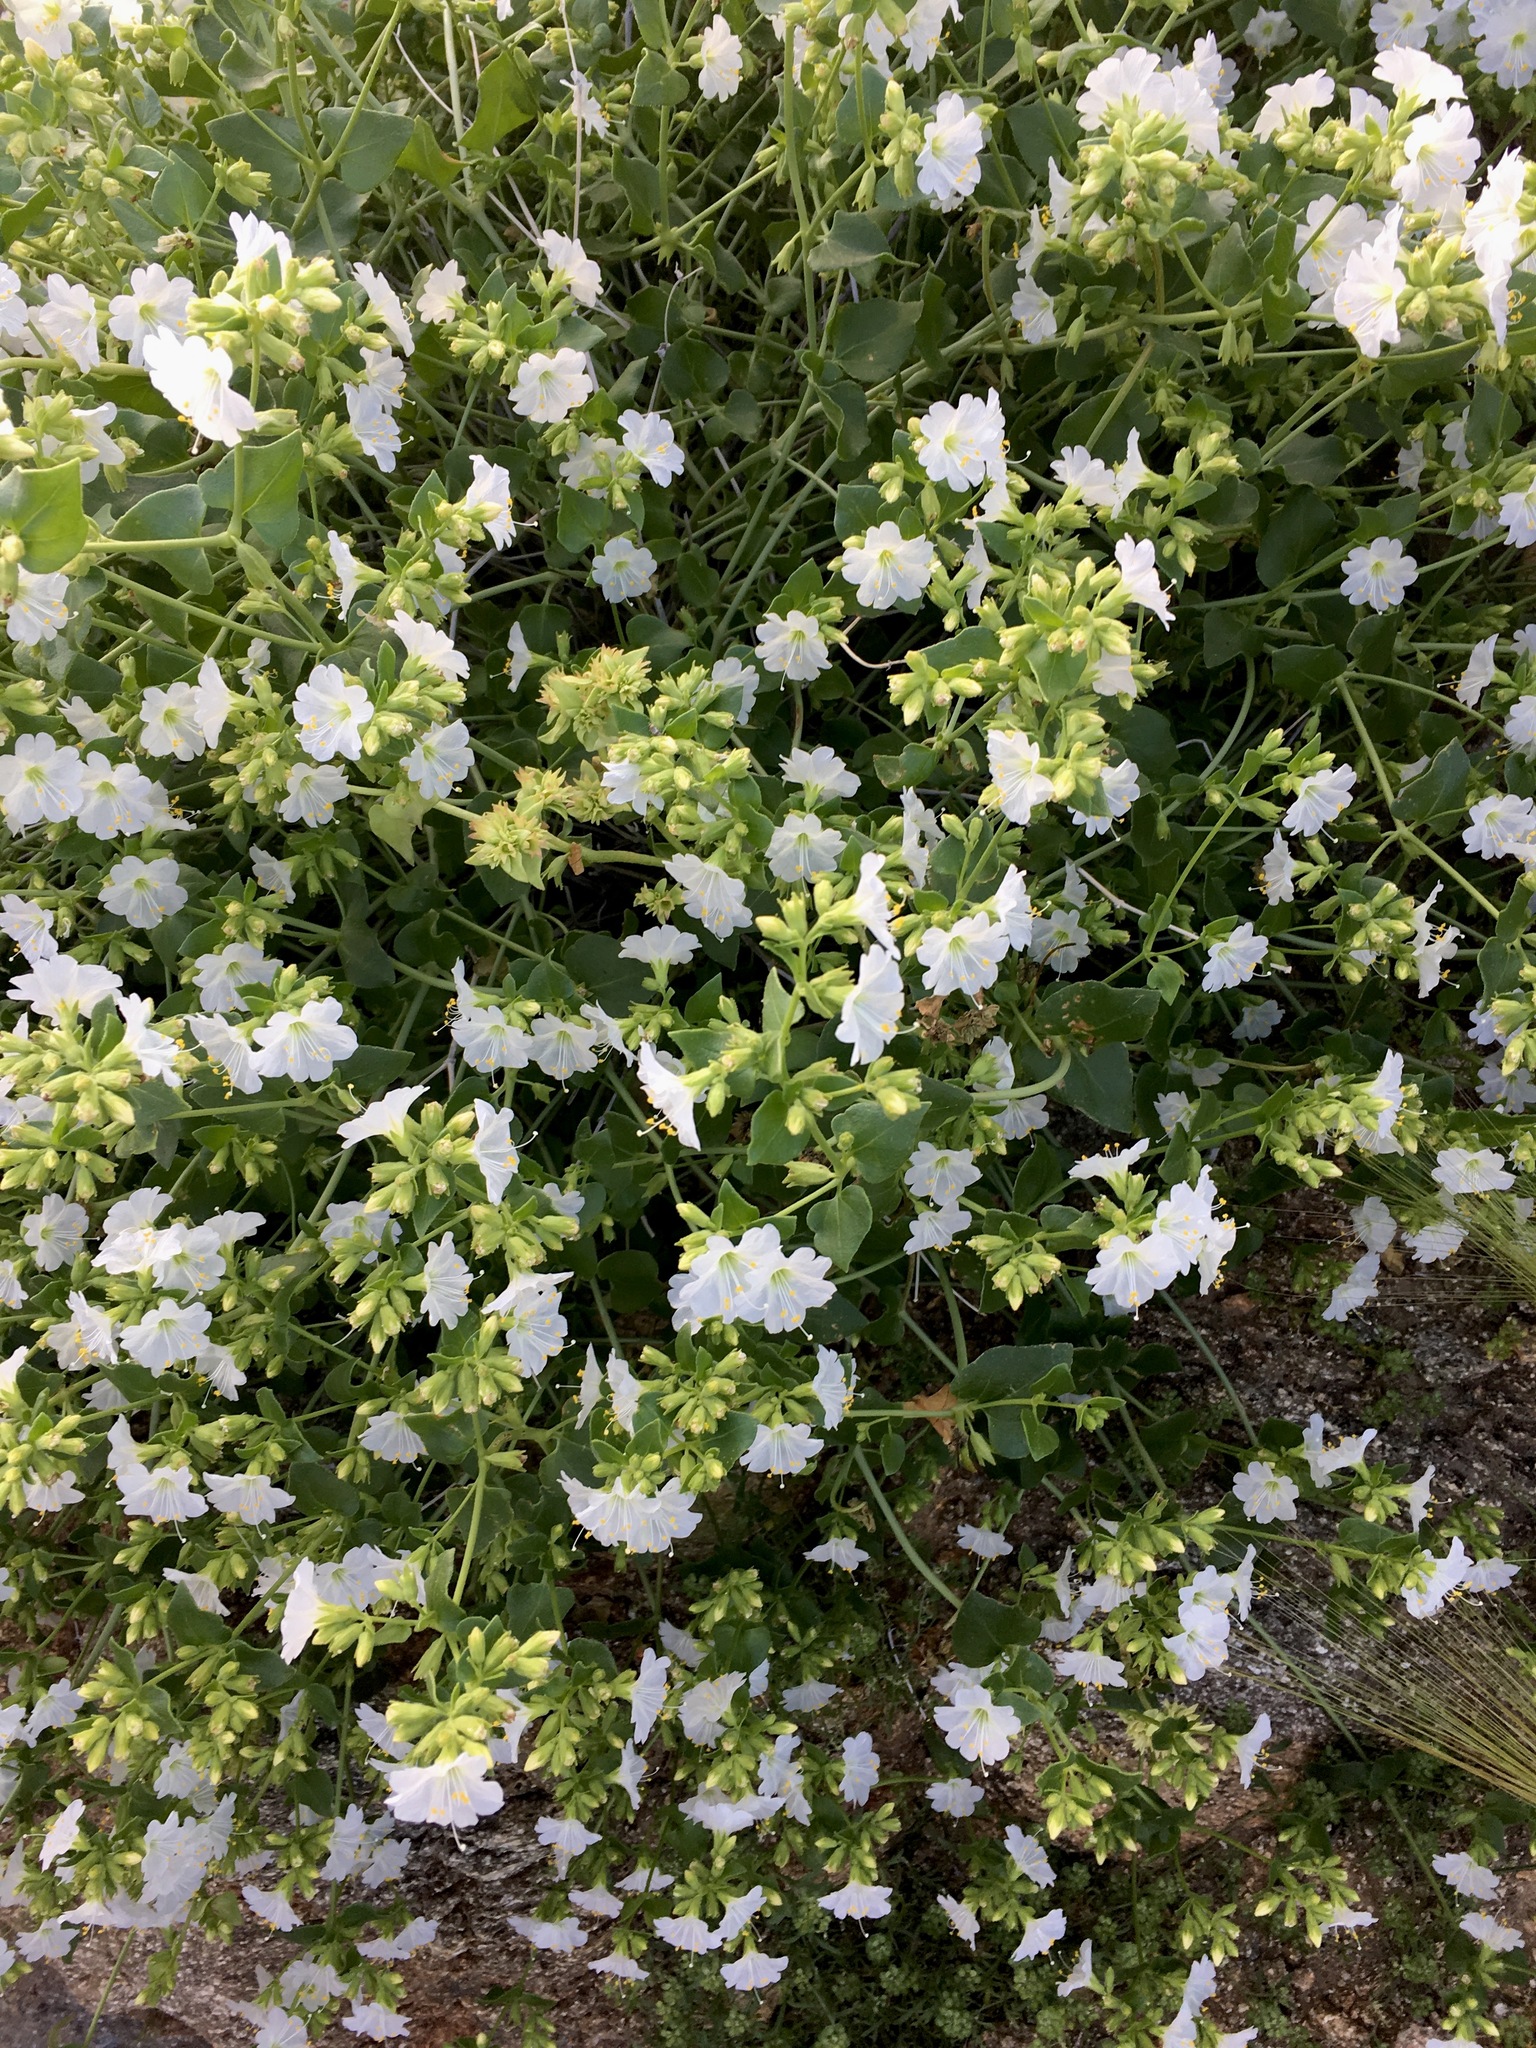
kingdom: Plantae
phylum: Tracheophyta
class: Magnoliopsida
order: Caryophyllales
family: Nyctaginaceae
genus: Mirabilis
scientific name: Mirabilis laevis
